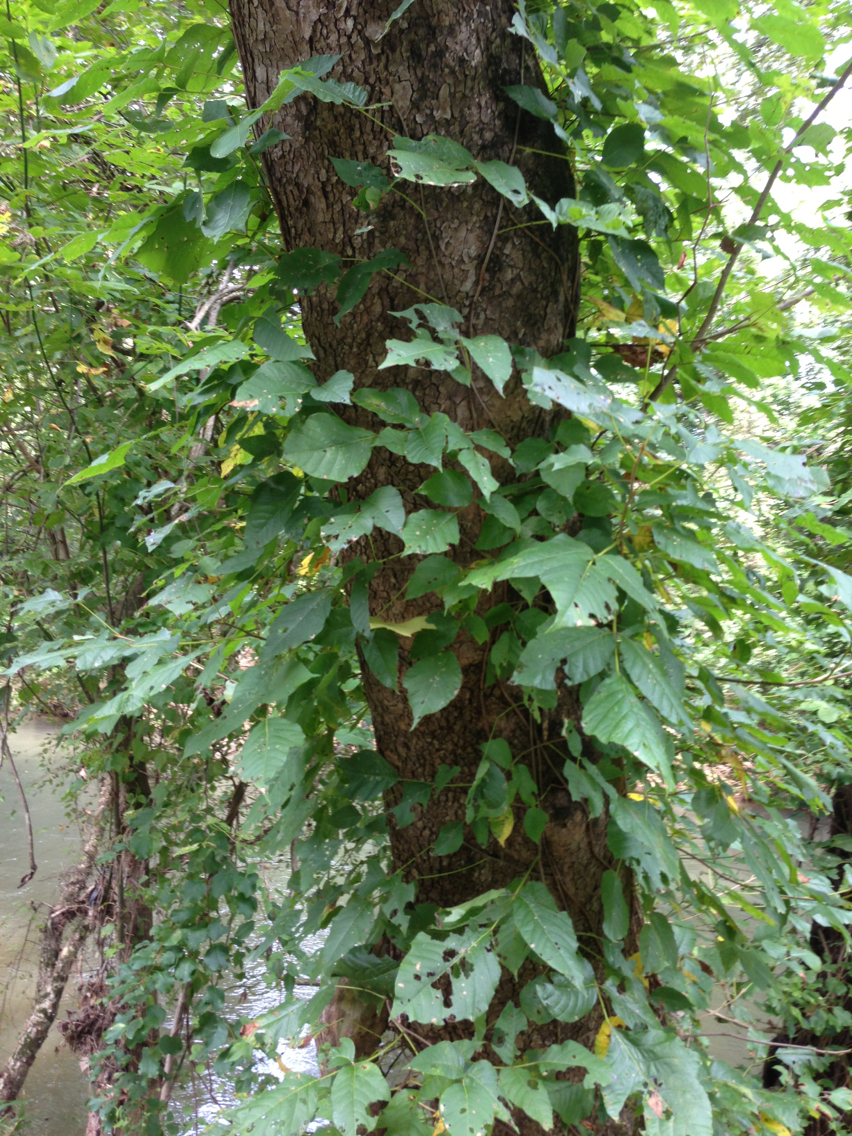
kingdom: Plantae
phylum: Tracheophyta
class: Magnoliopsida
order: Sapindales
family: Anacardiaceae
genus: Toxicodendron
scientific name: Toxicodendron radicans
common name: Poison ivy
